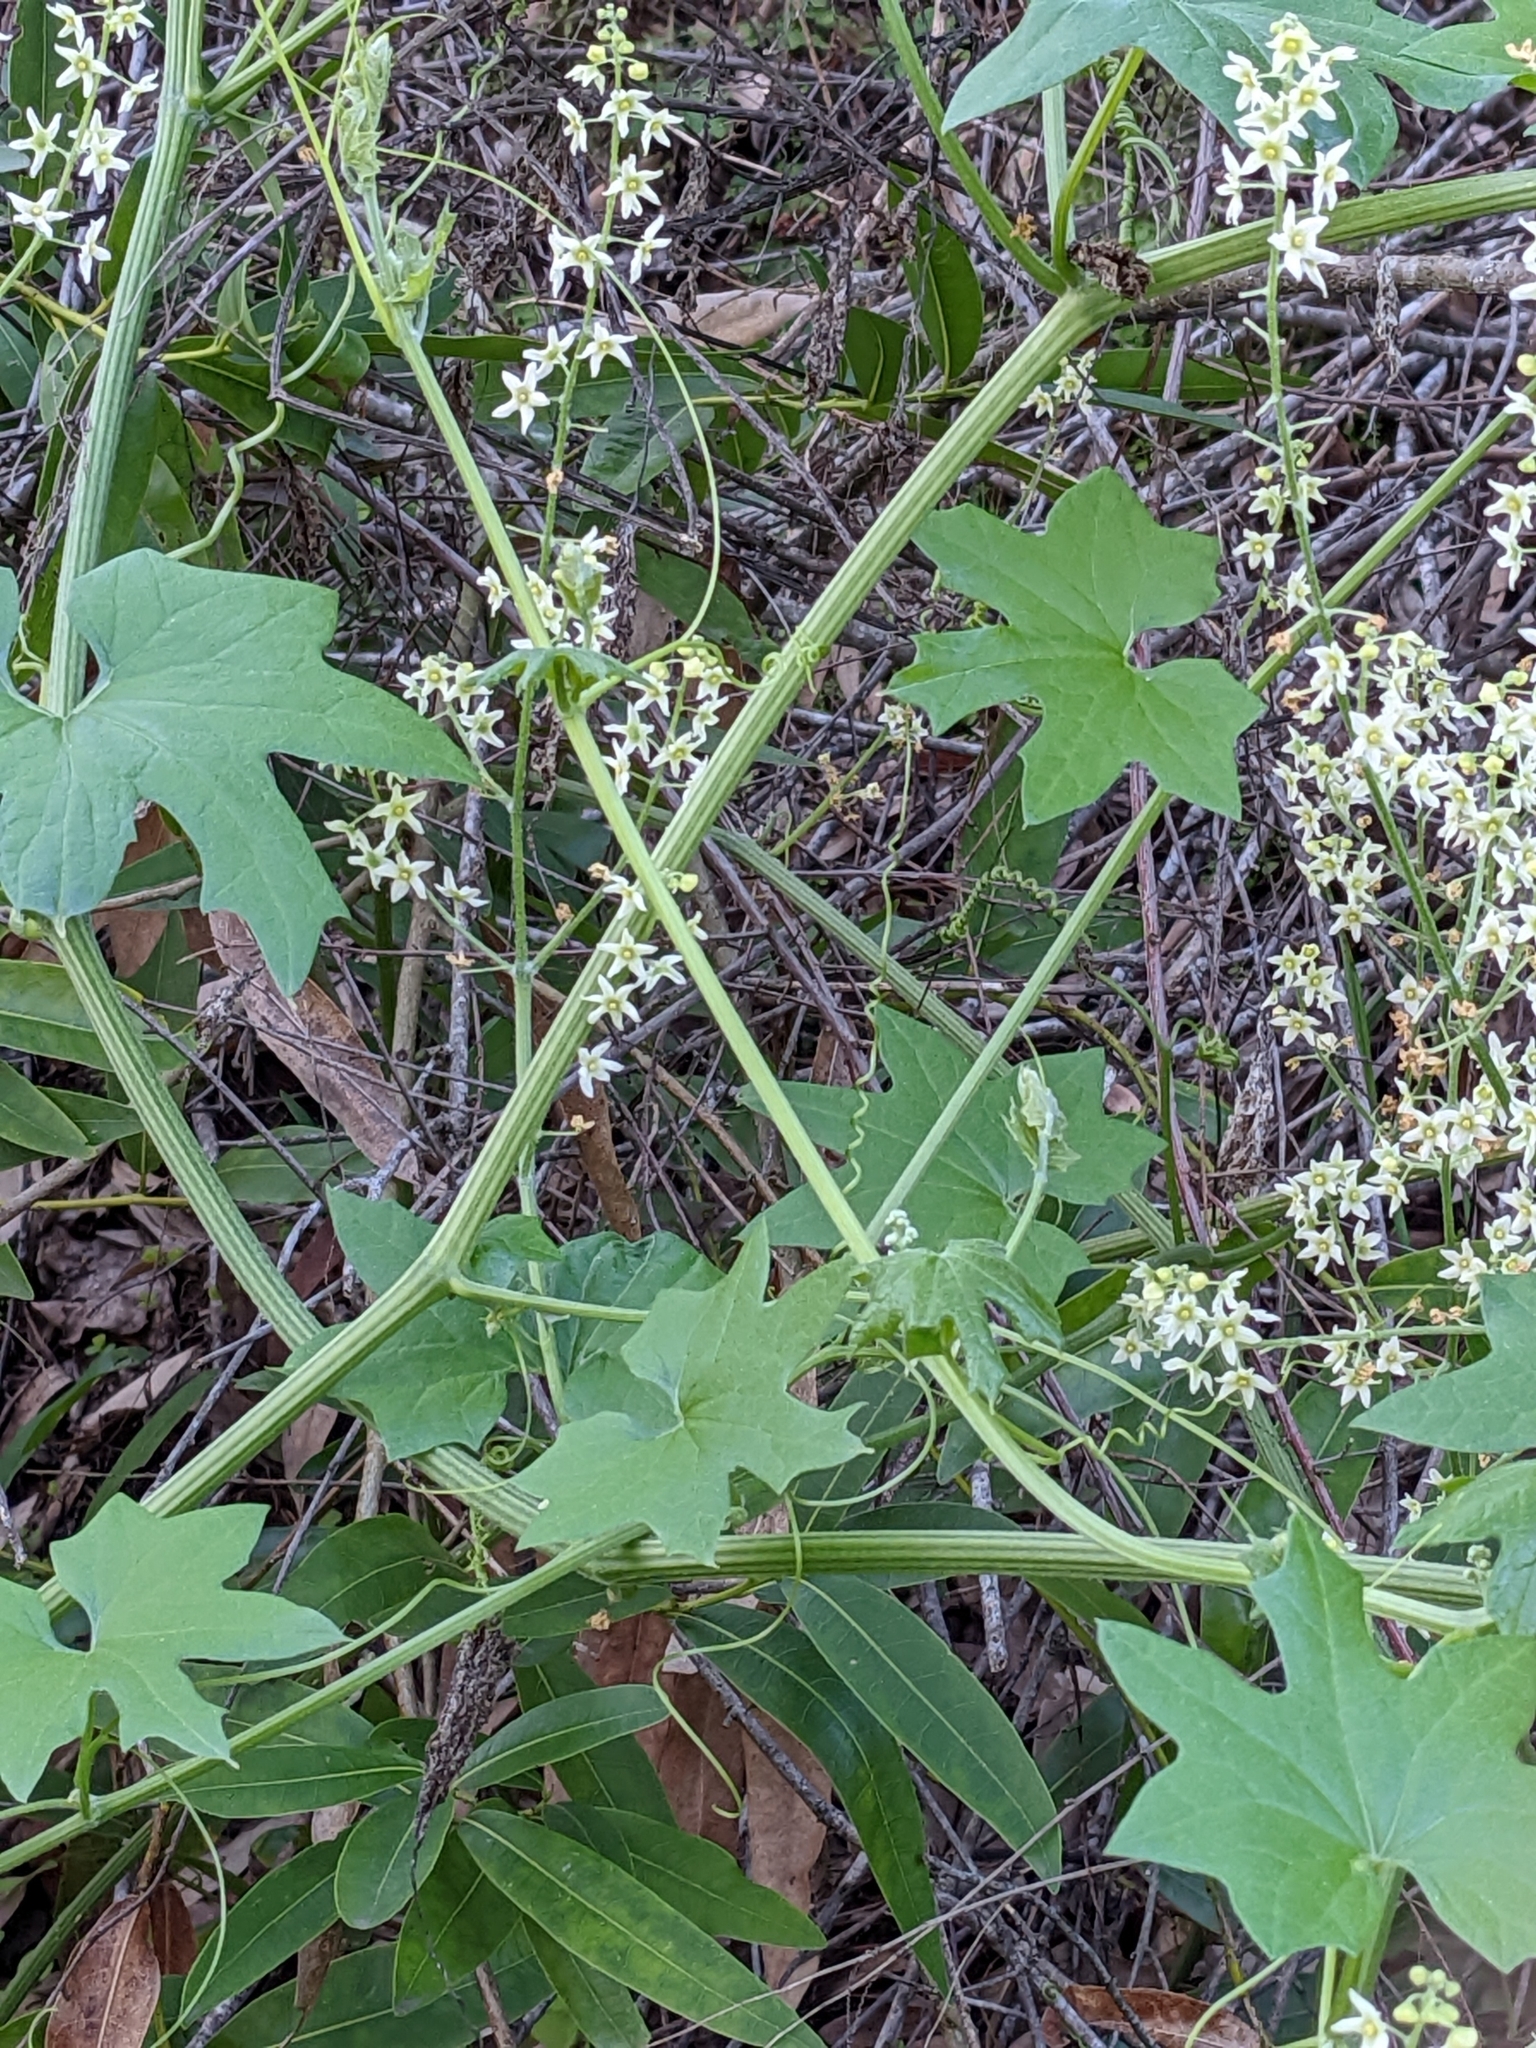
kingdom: Plantae
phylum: Tracheophyta
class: Magnoliopsida
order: Cucurbitales
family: Cucurbitaceae
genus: Marah
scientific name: Marah fabacea
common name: California manroot
